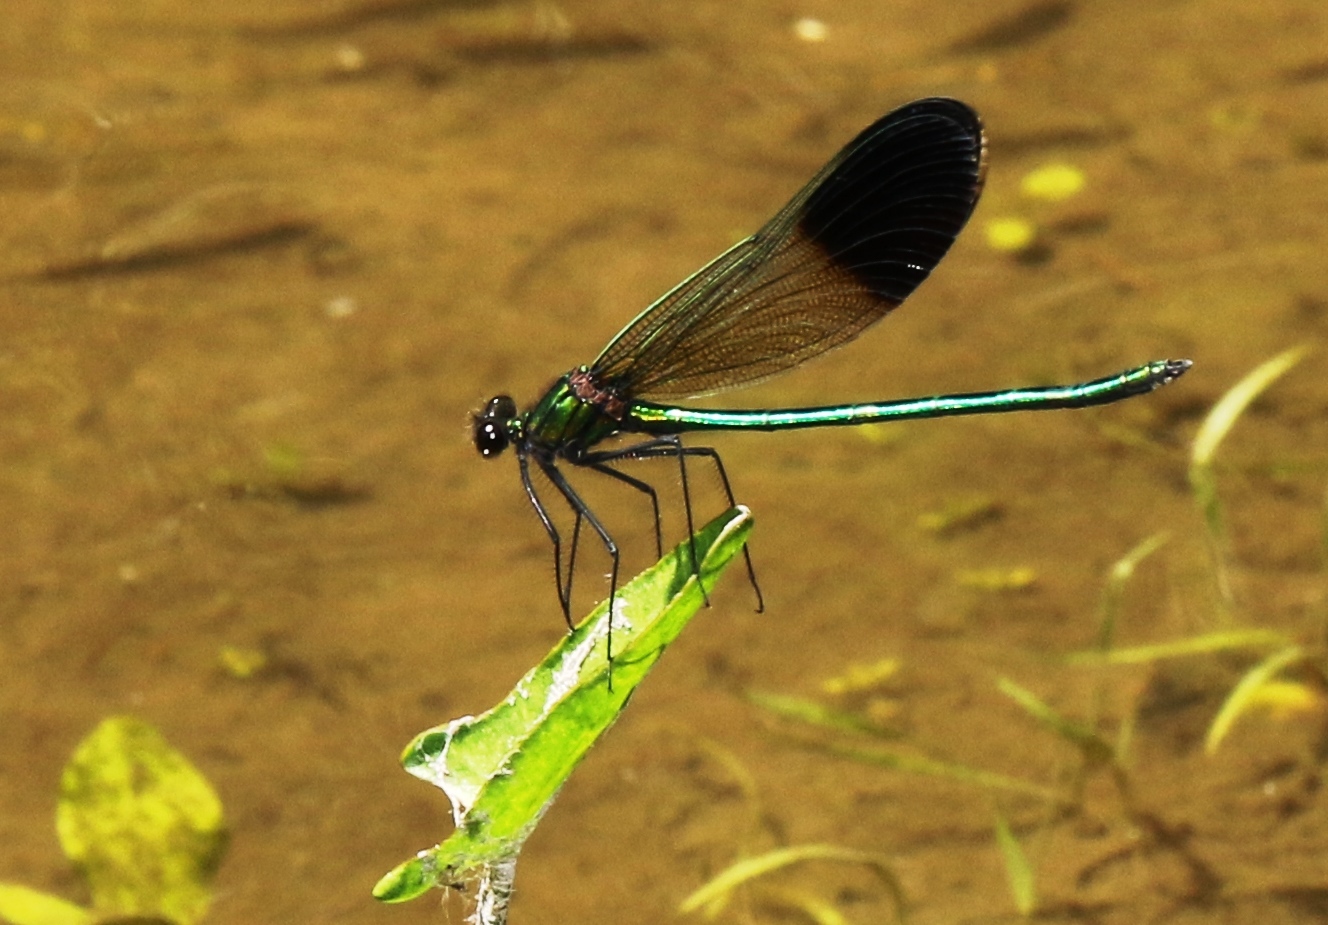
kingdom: Animalia
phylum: Arthropoda
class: Insecta
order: Odonata
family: Calopterygidae
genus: Calopteryx
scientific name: Calopteryx aequabilis
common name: River jewelwing
